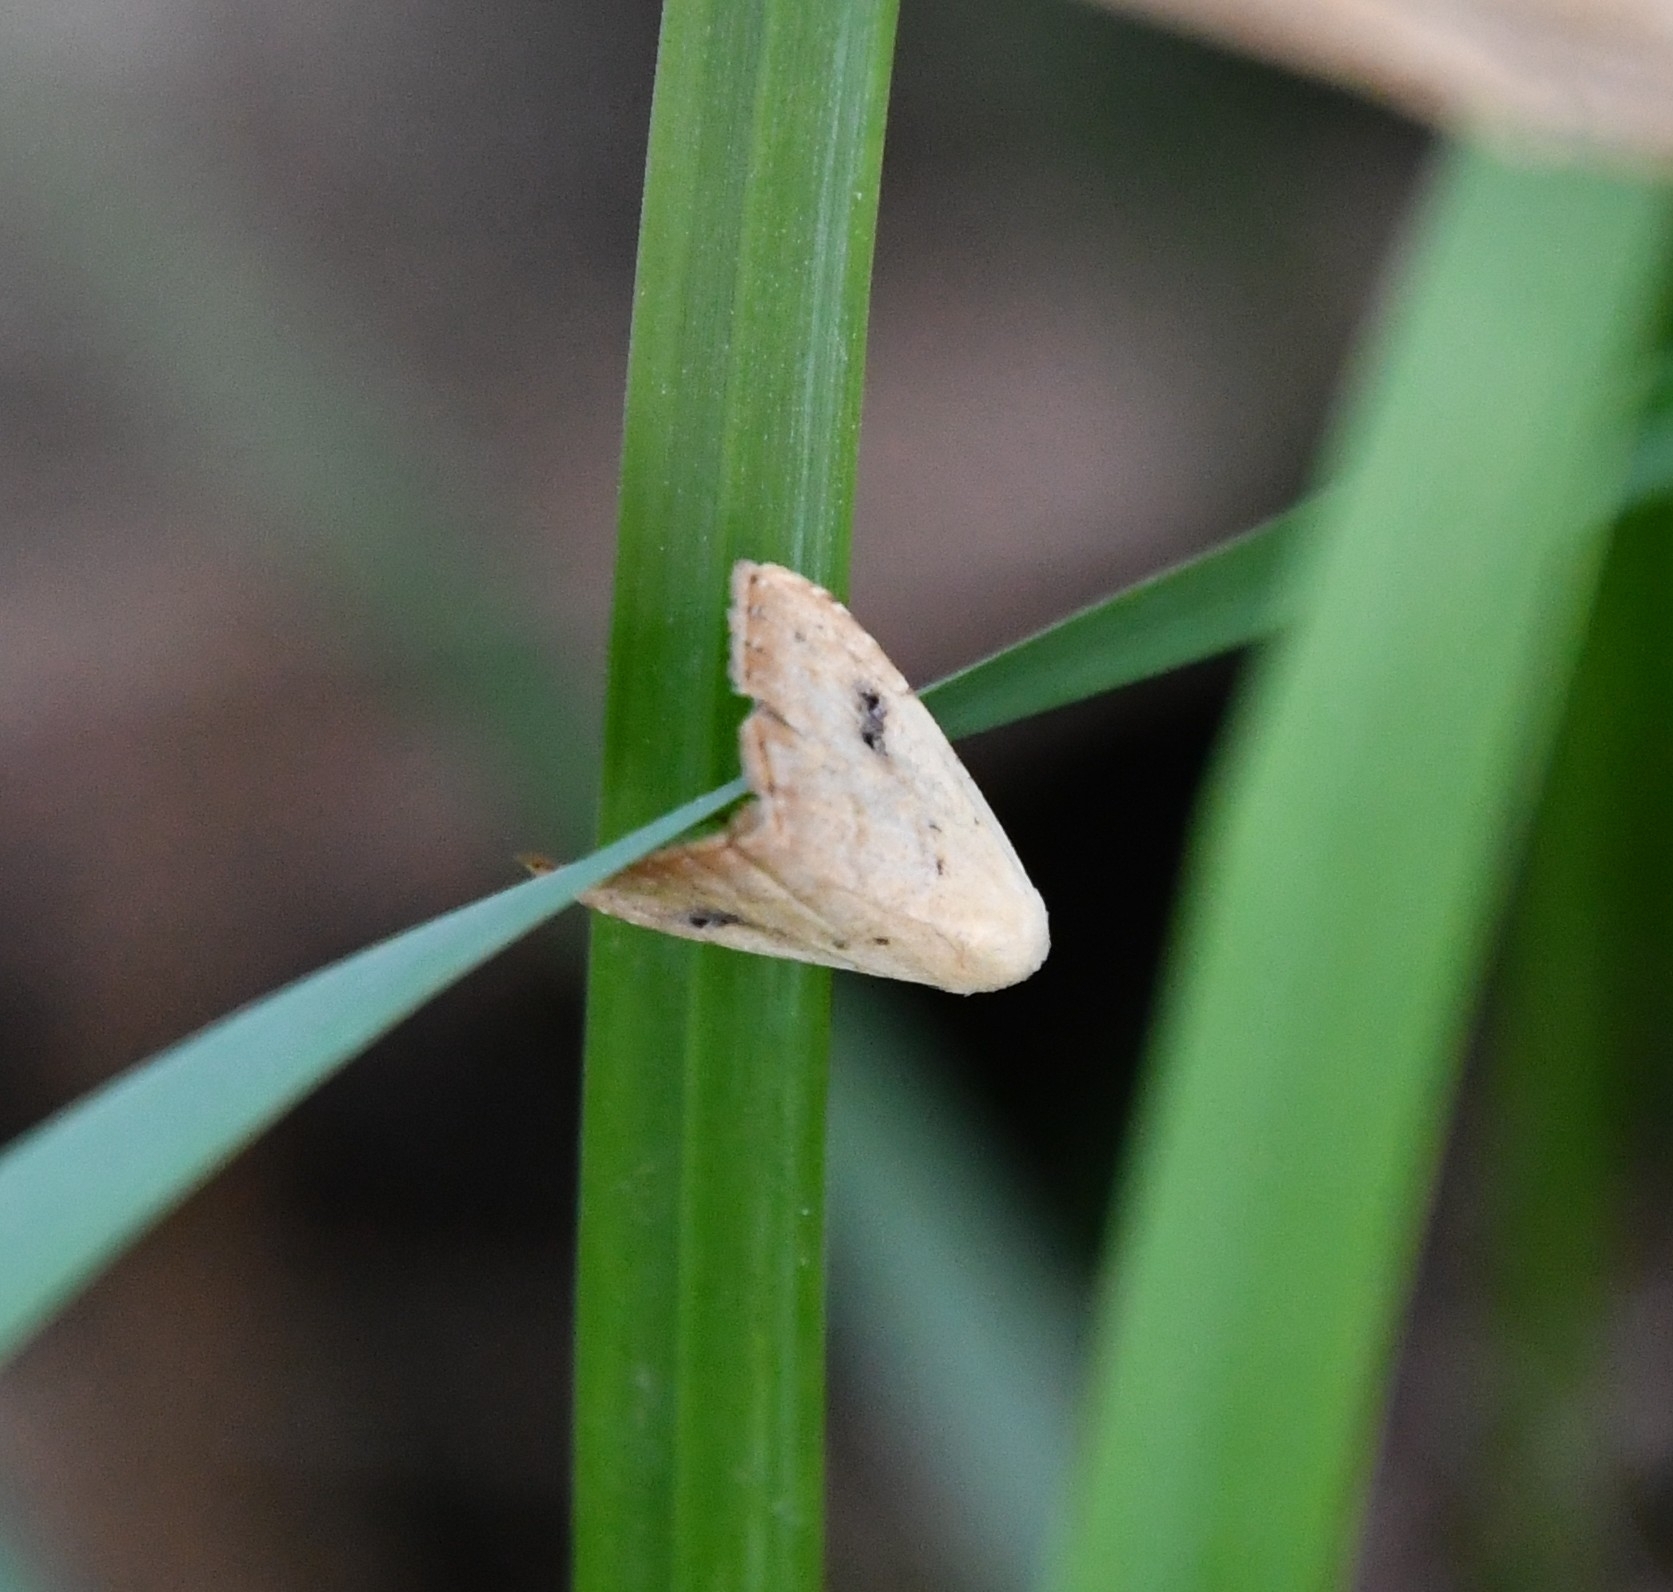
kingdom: Animalia
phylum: Arthropoda
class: Insecta
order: Lepidoptera
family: Erebidae
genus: Rivula
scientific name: Rivula sericealis
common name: Straw dot
